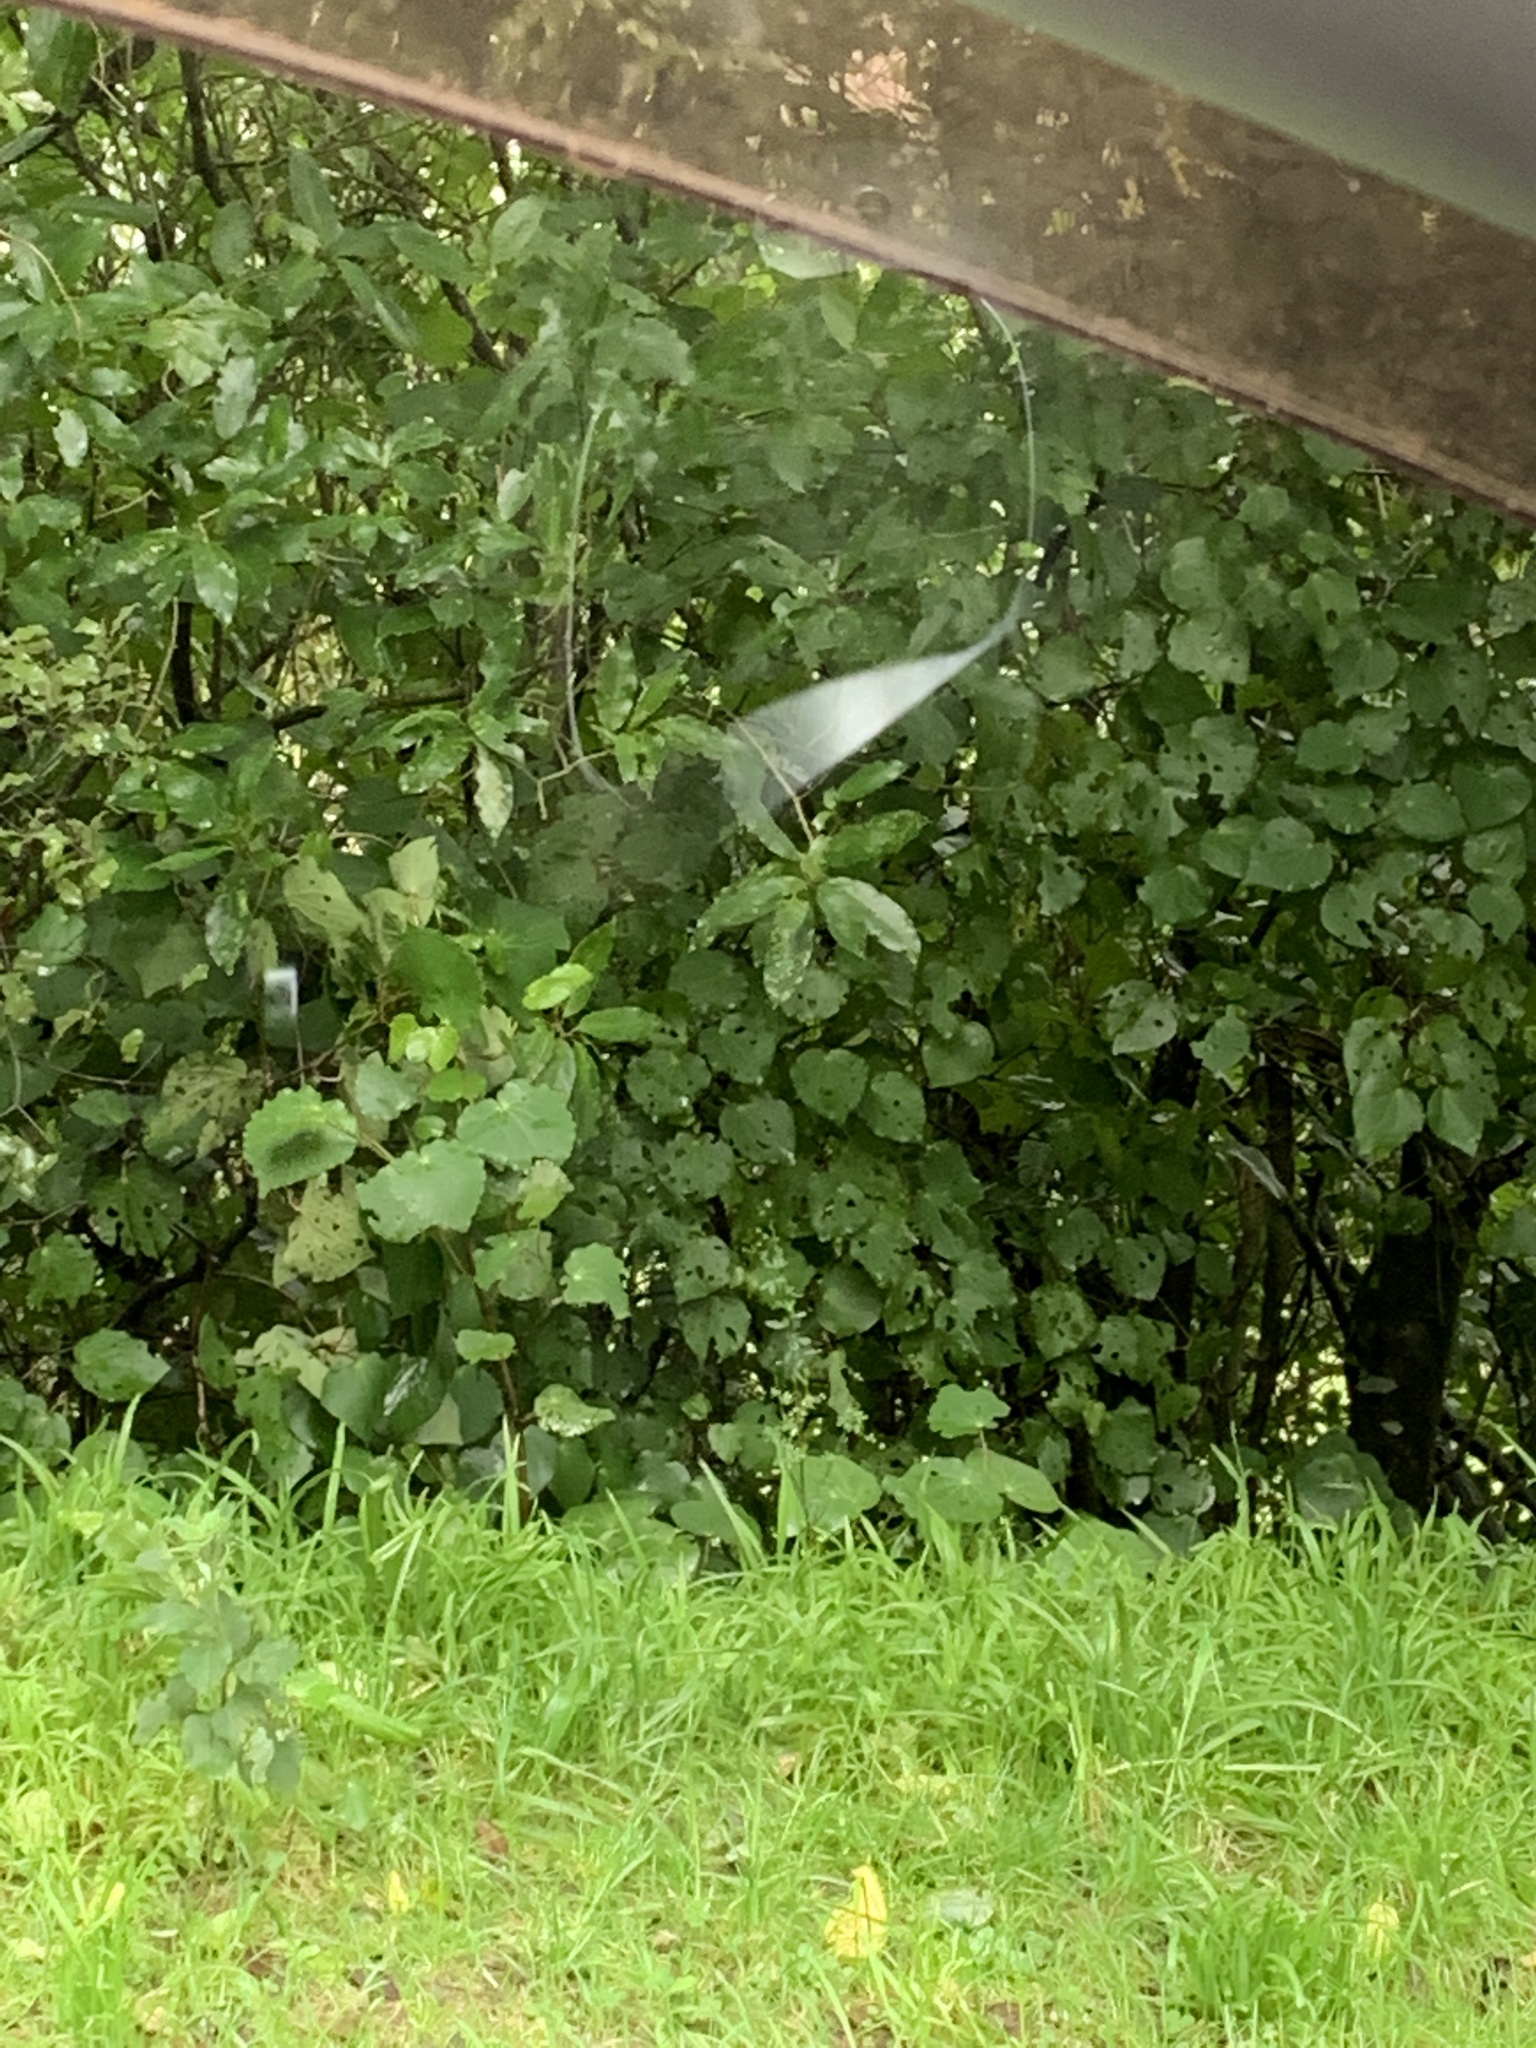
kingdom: Plantae
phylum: Tracheophyta
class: Magnoliopsida
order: Piperales
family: Piperaceae
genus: Macropiper
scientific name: Macropiper excelsum
